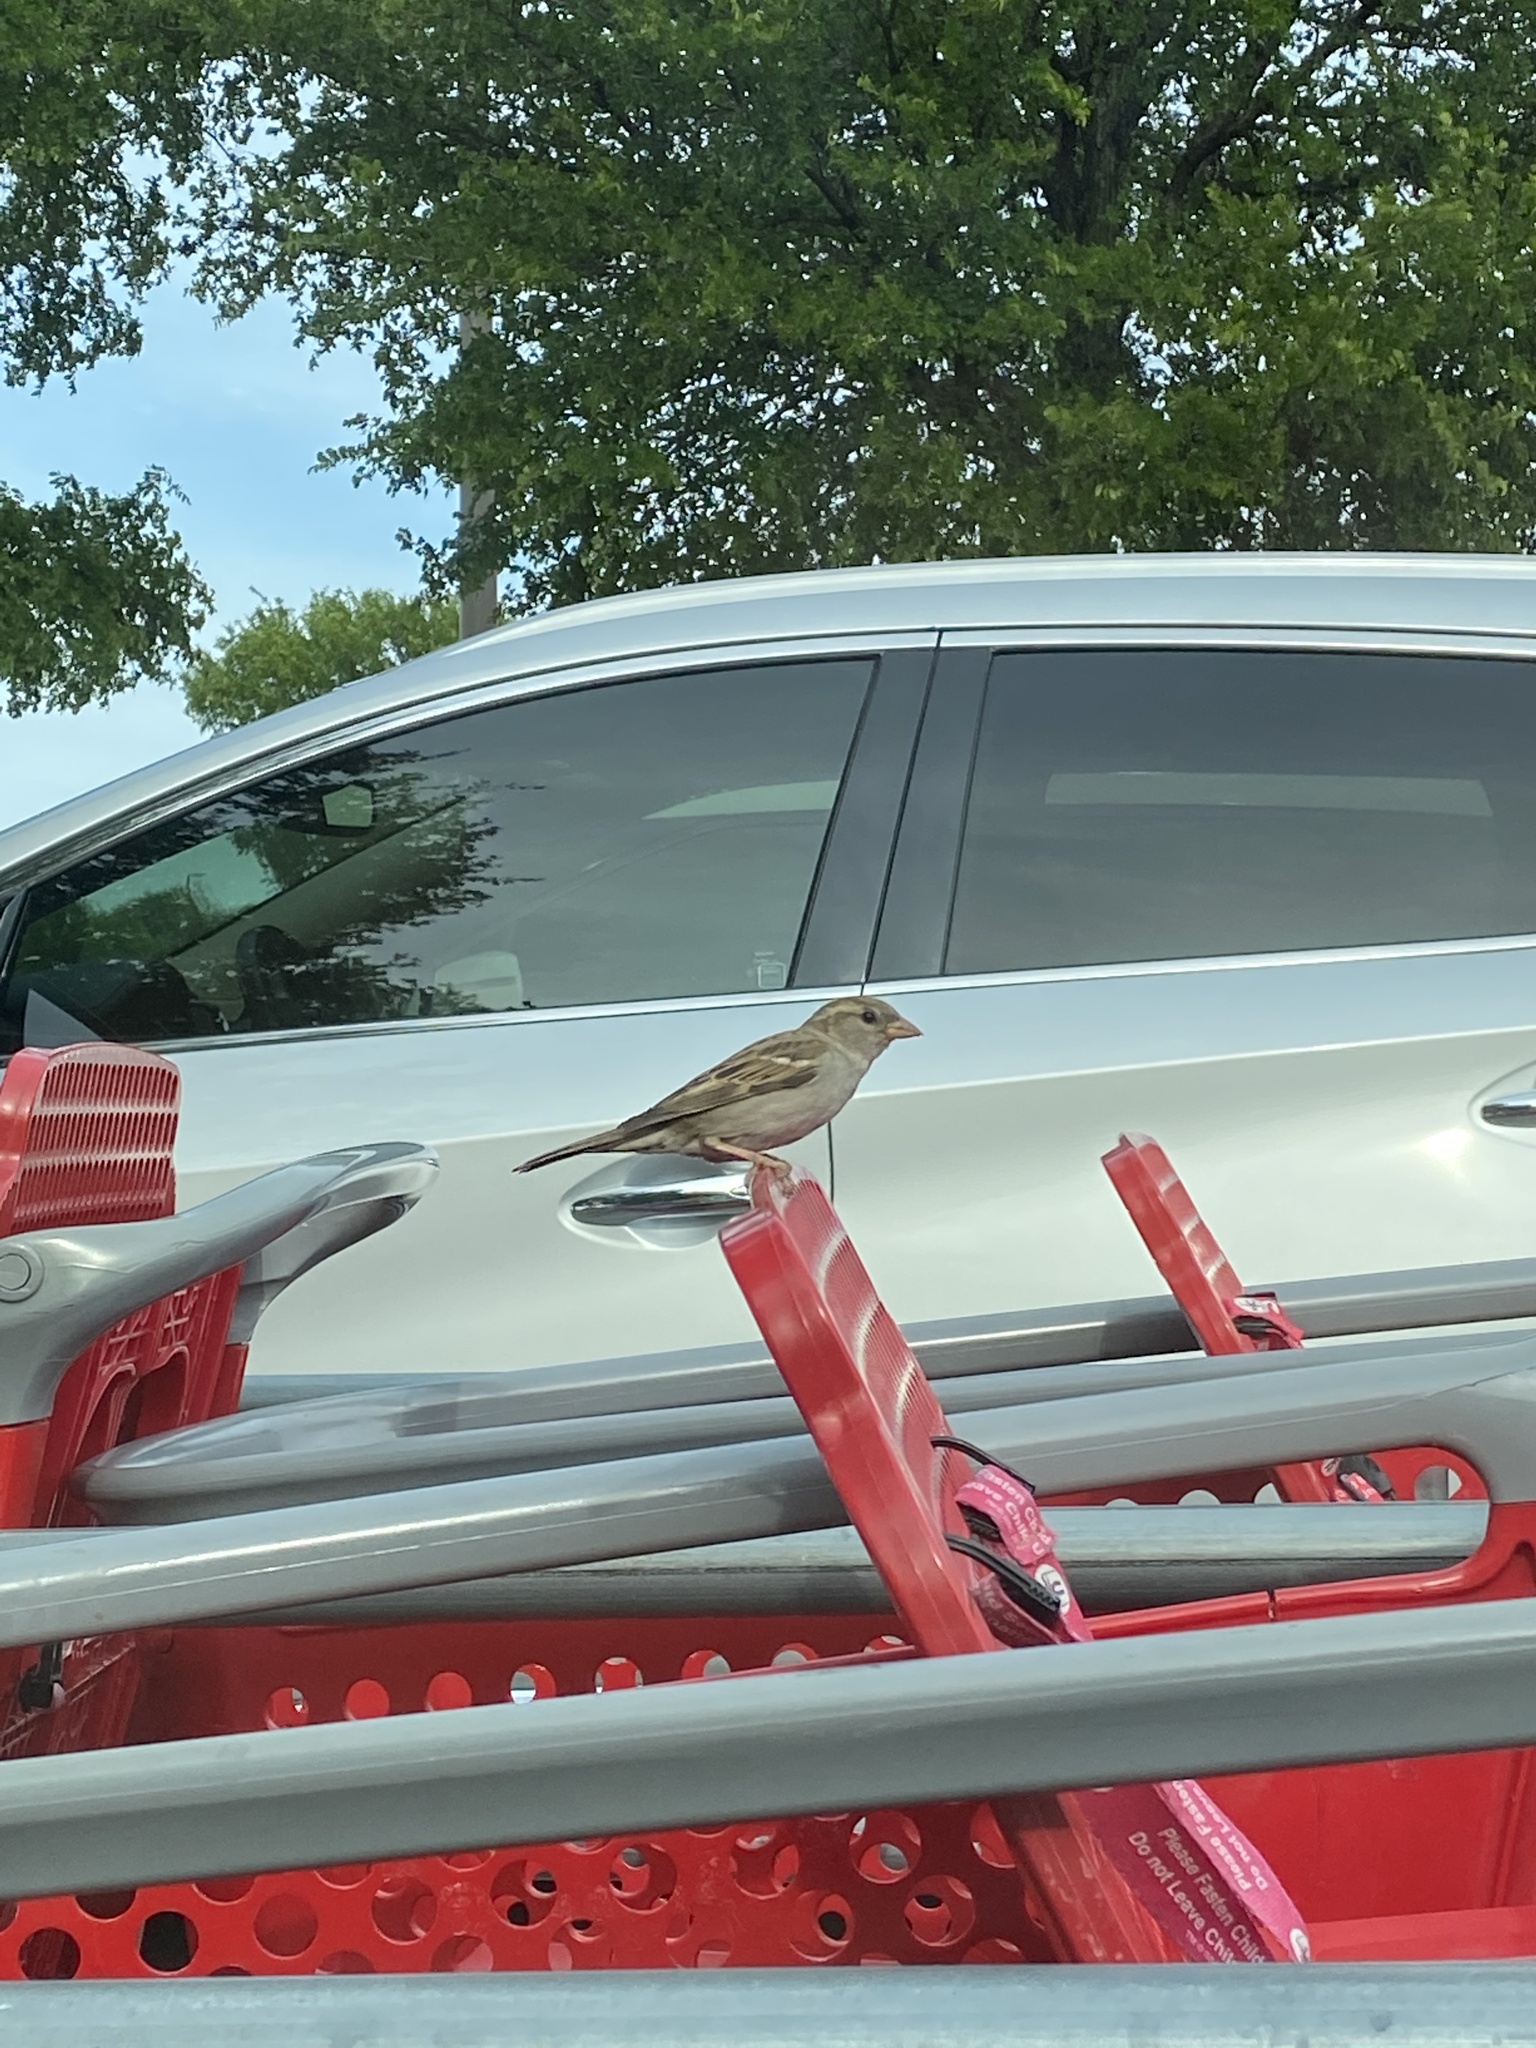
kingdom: Animalia
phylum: Chordata
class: Aves
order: Passeriformes
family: Passeridae
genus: Passer
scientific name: Passer domesticus
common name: House sparrow
